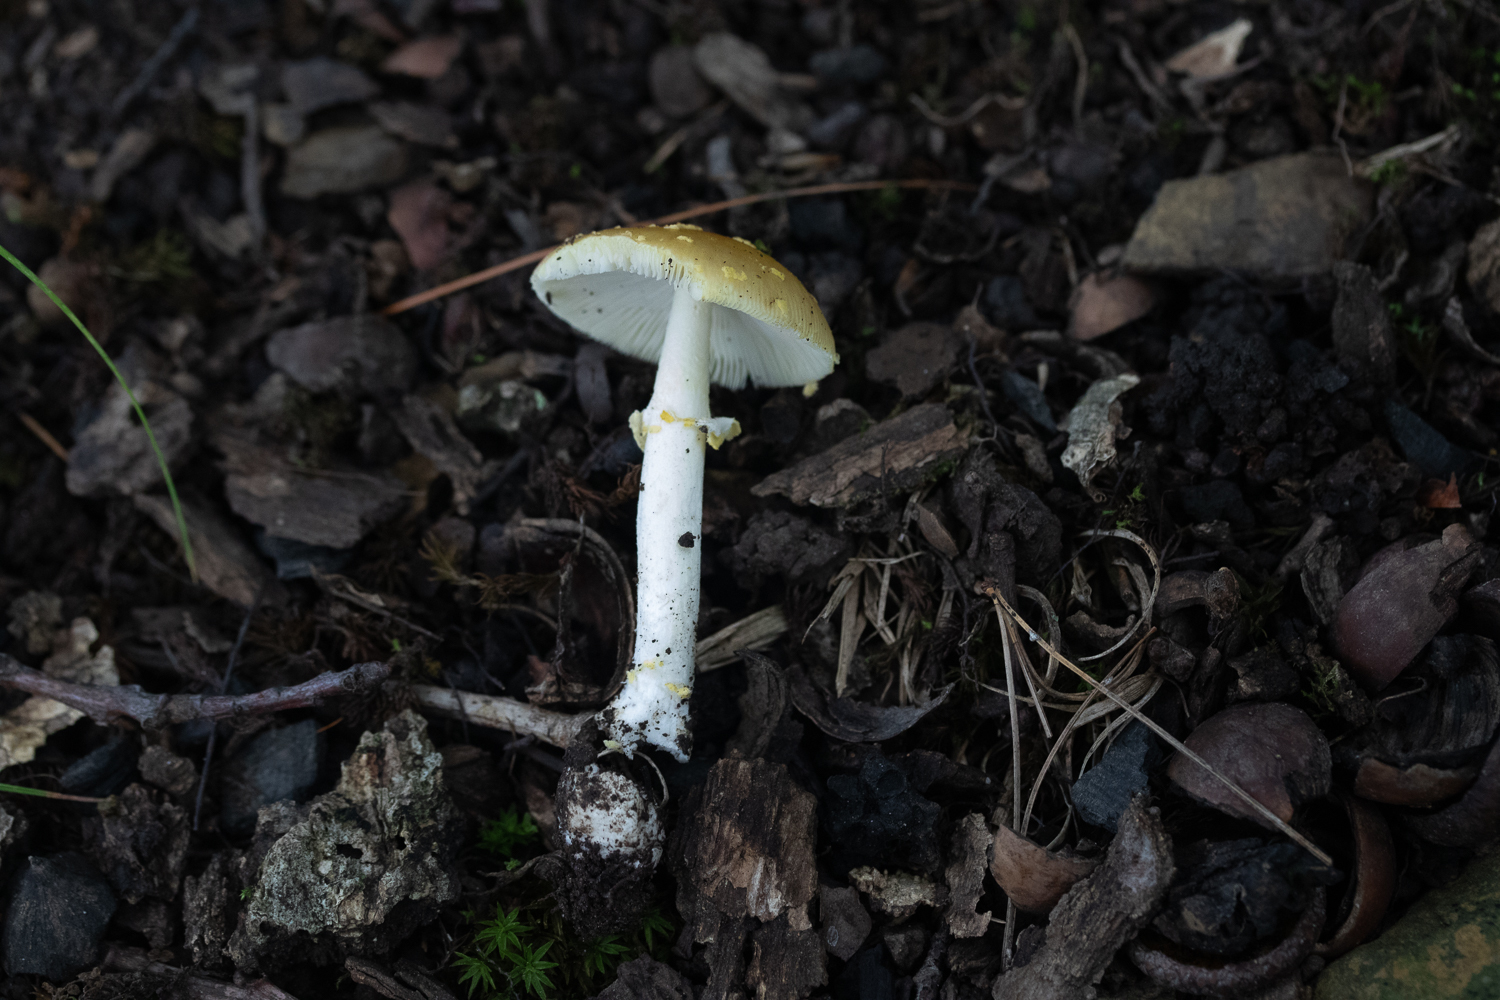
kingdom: Fungi
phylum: Basidiomycota
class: Agaricomycetes
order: Agaricales
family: Amanitaceae
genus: Amanita
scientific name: Amanita frostiana
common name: Frost's amanita
